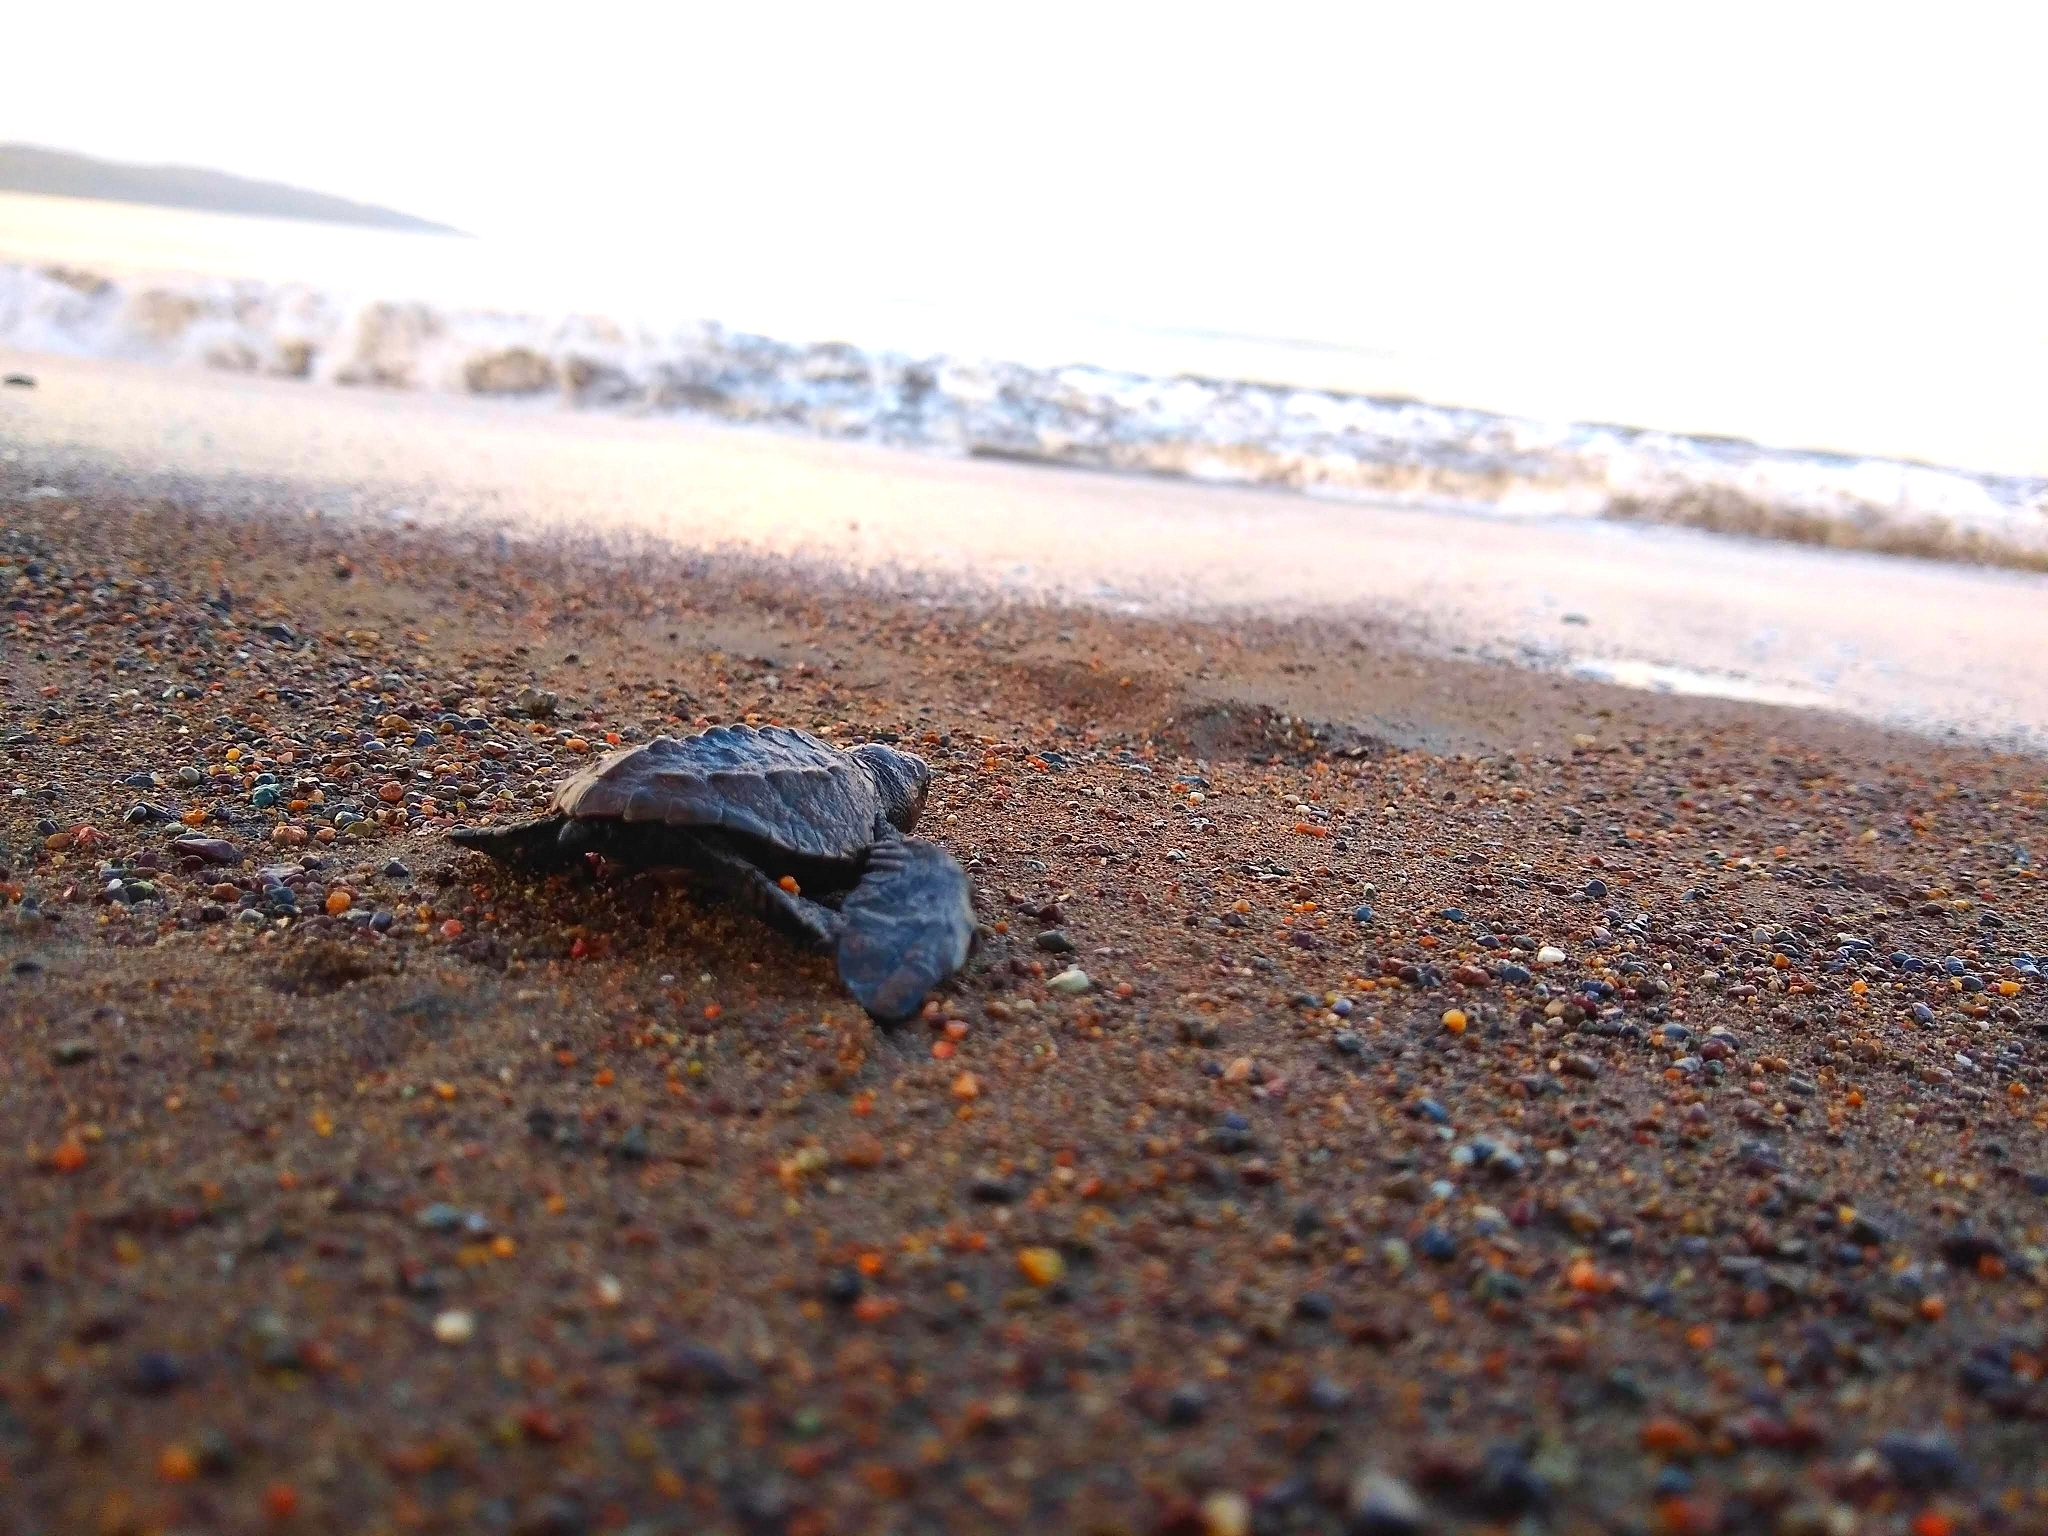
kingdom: Animalia
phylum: Chordata
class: Testudines
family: Cheloniidae
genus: Lepidochelys
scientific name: Lepidochelys olivacea
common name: Olive ridley
